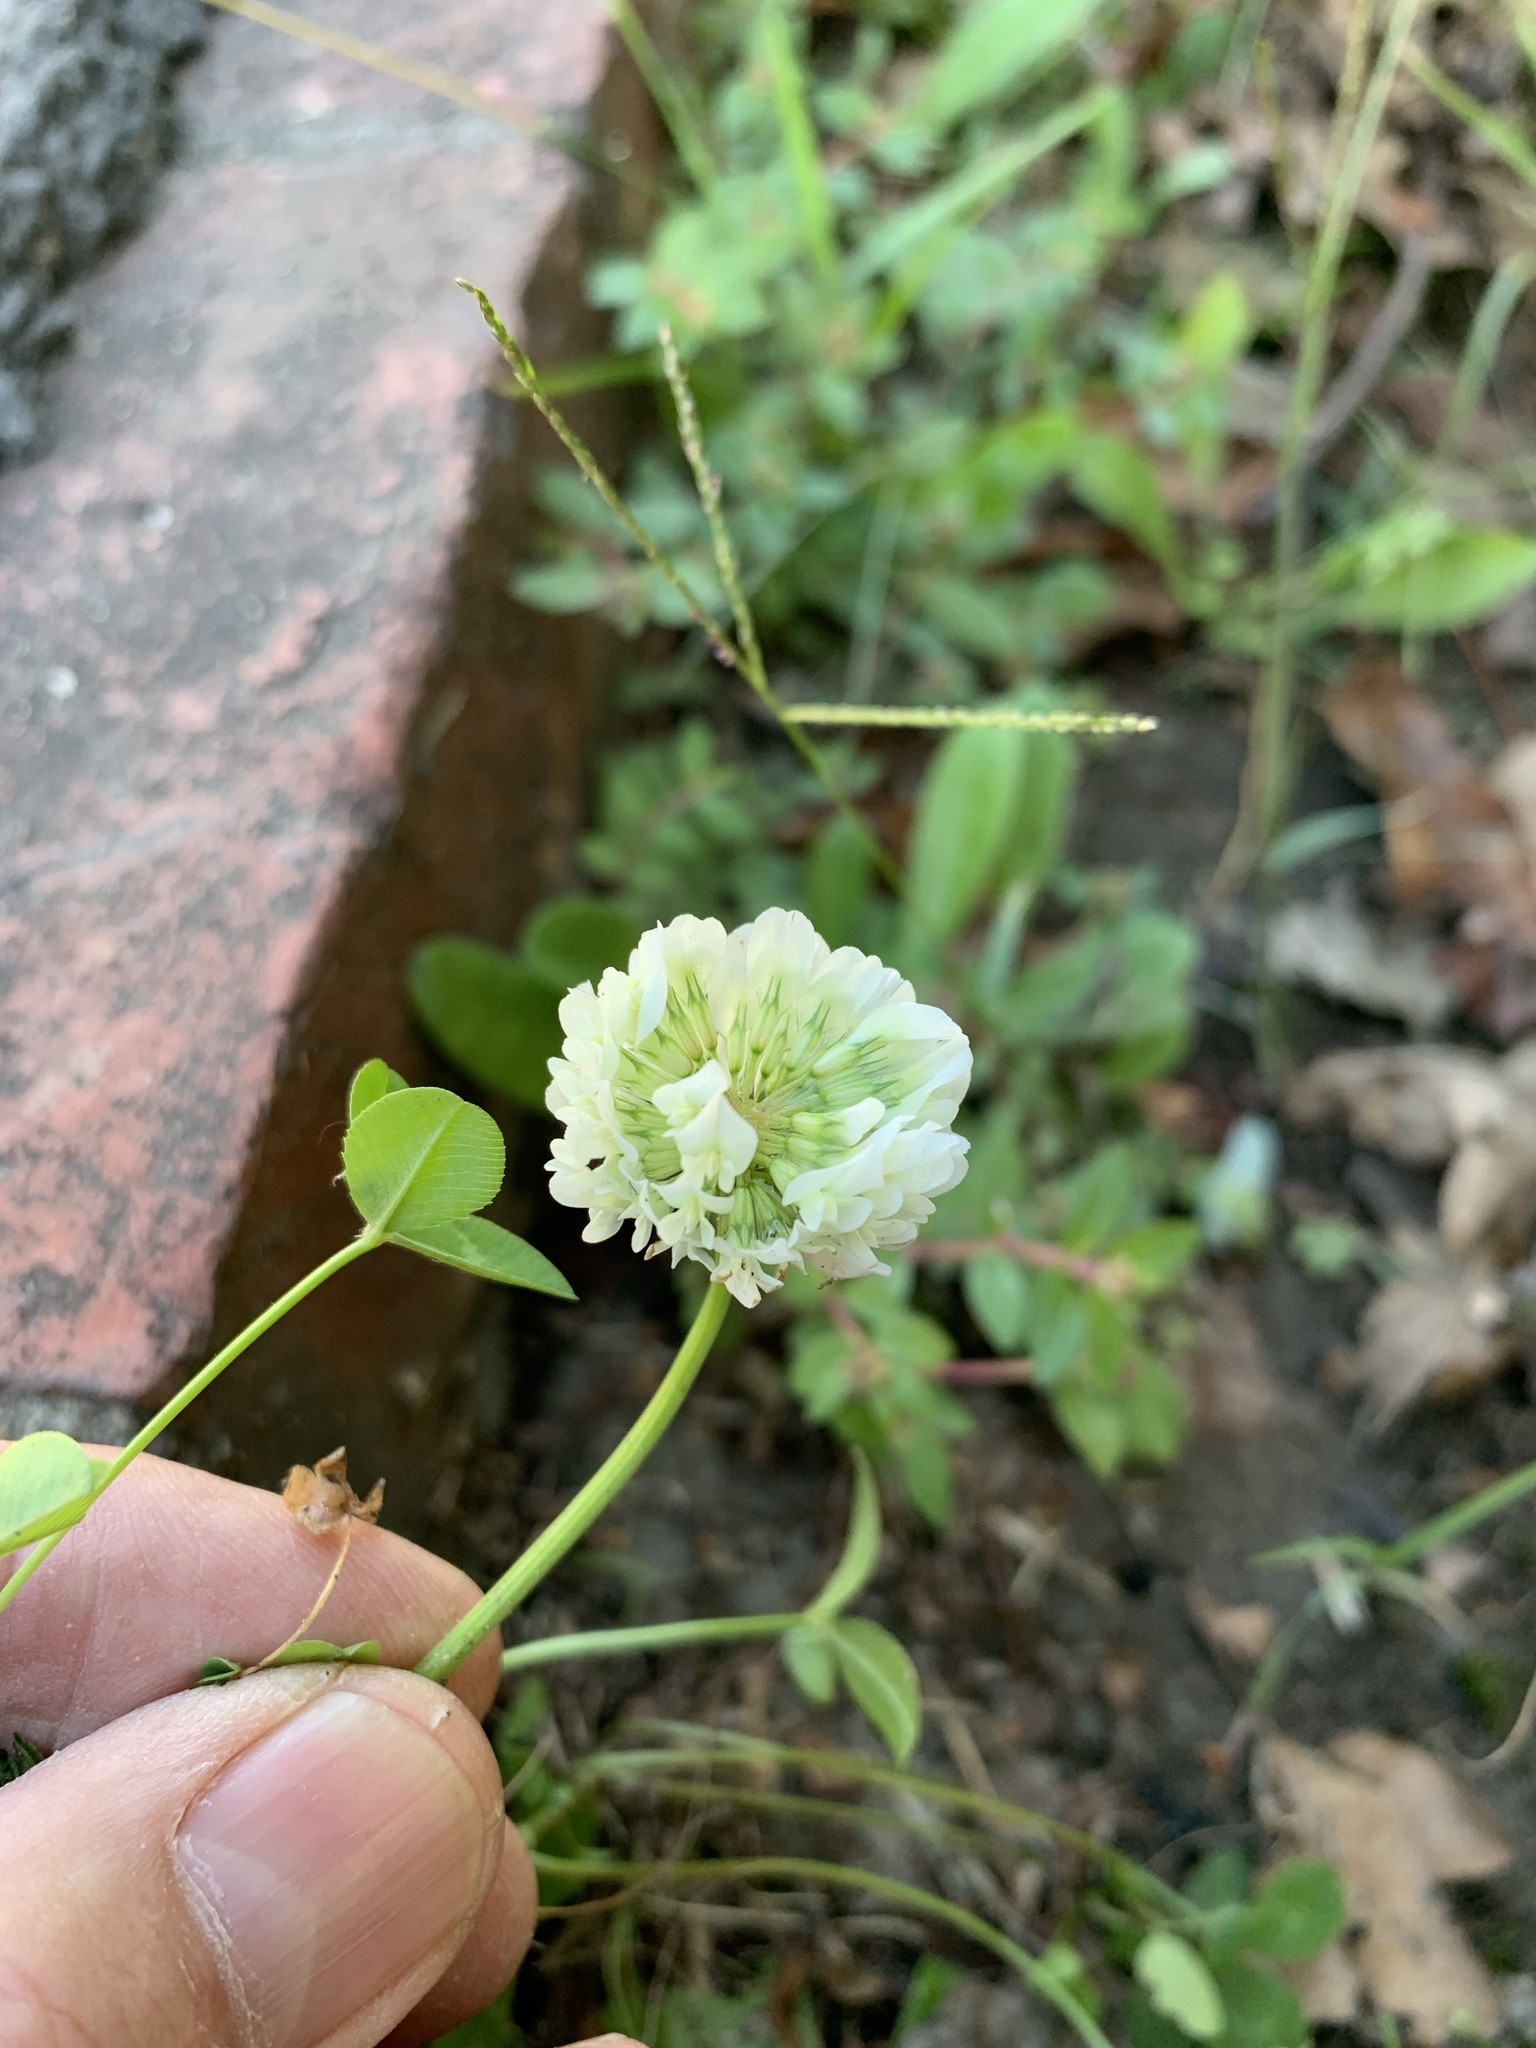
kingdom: Plantae
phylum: Tracheophyta
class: Magnoliopsida
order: Fabales
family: Fabaceae
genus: Trifolium
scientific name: Trifolium repens
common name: White clover
